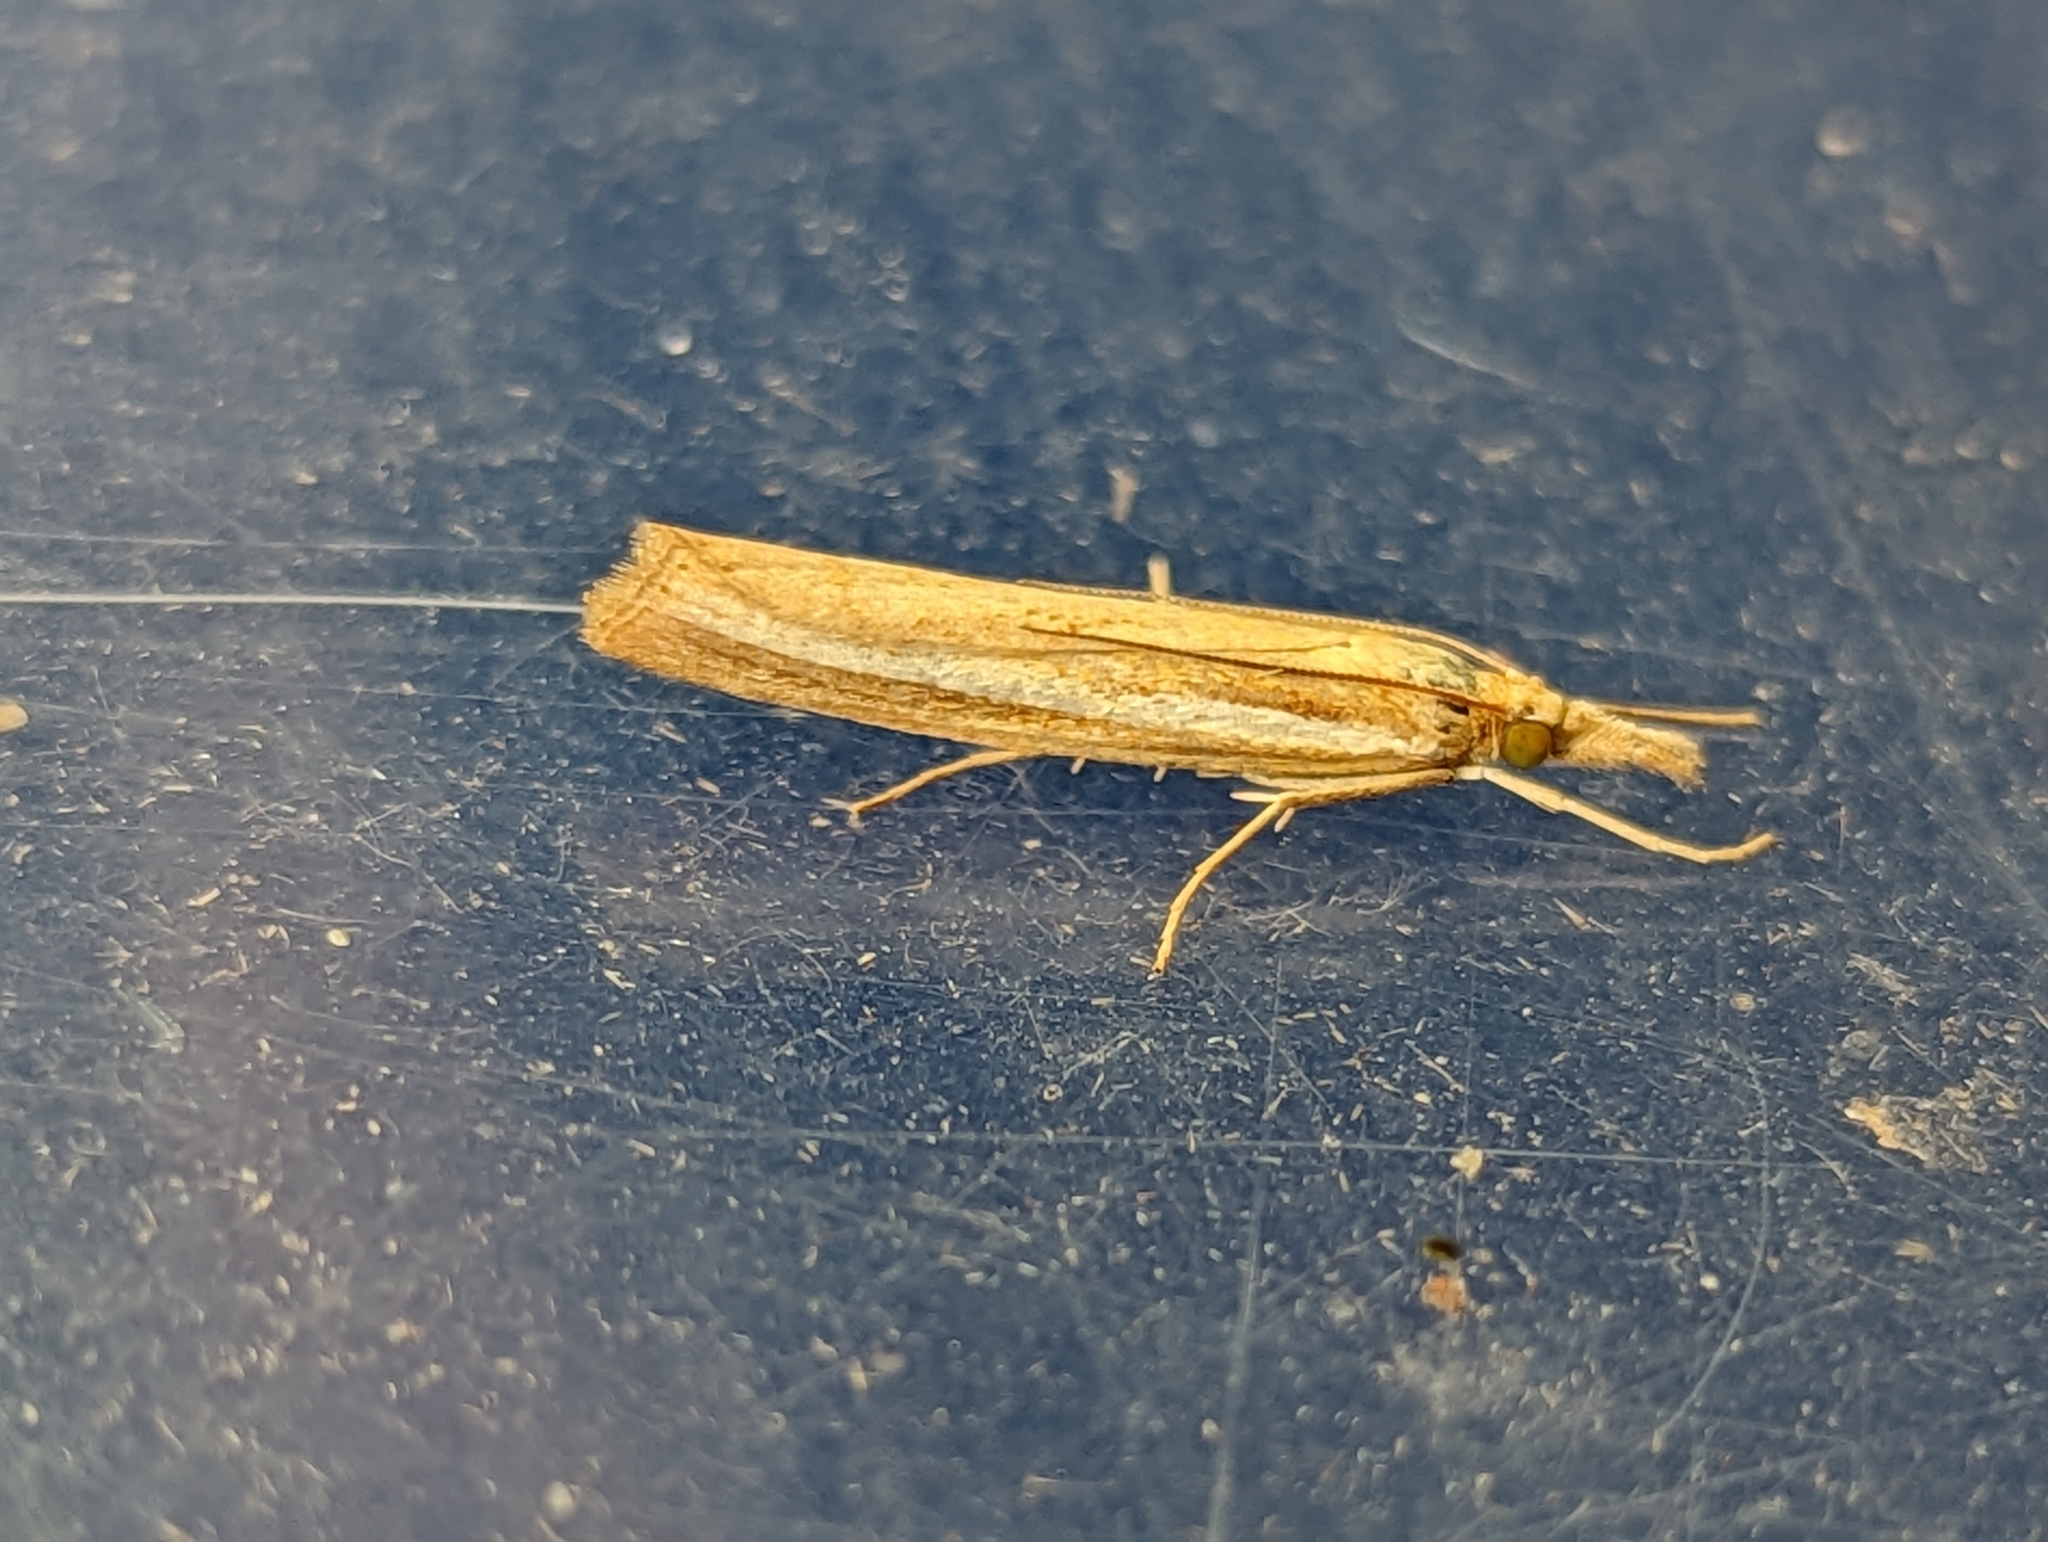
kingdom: Animalia
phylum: Arthropoda
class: Insecta
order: Lepidoptera
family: Crambidae
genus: Agriphila
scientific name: Agriphila tristellus
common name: Common grass-veneer
